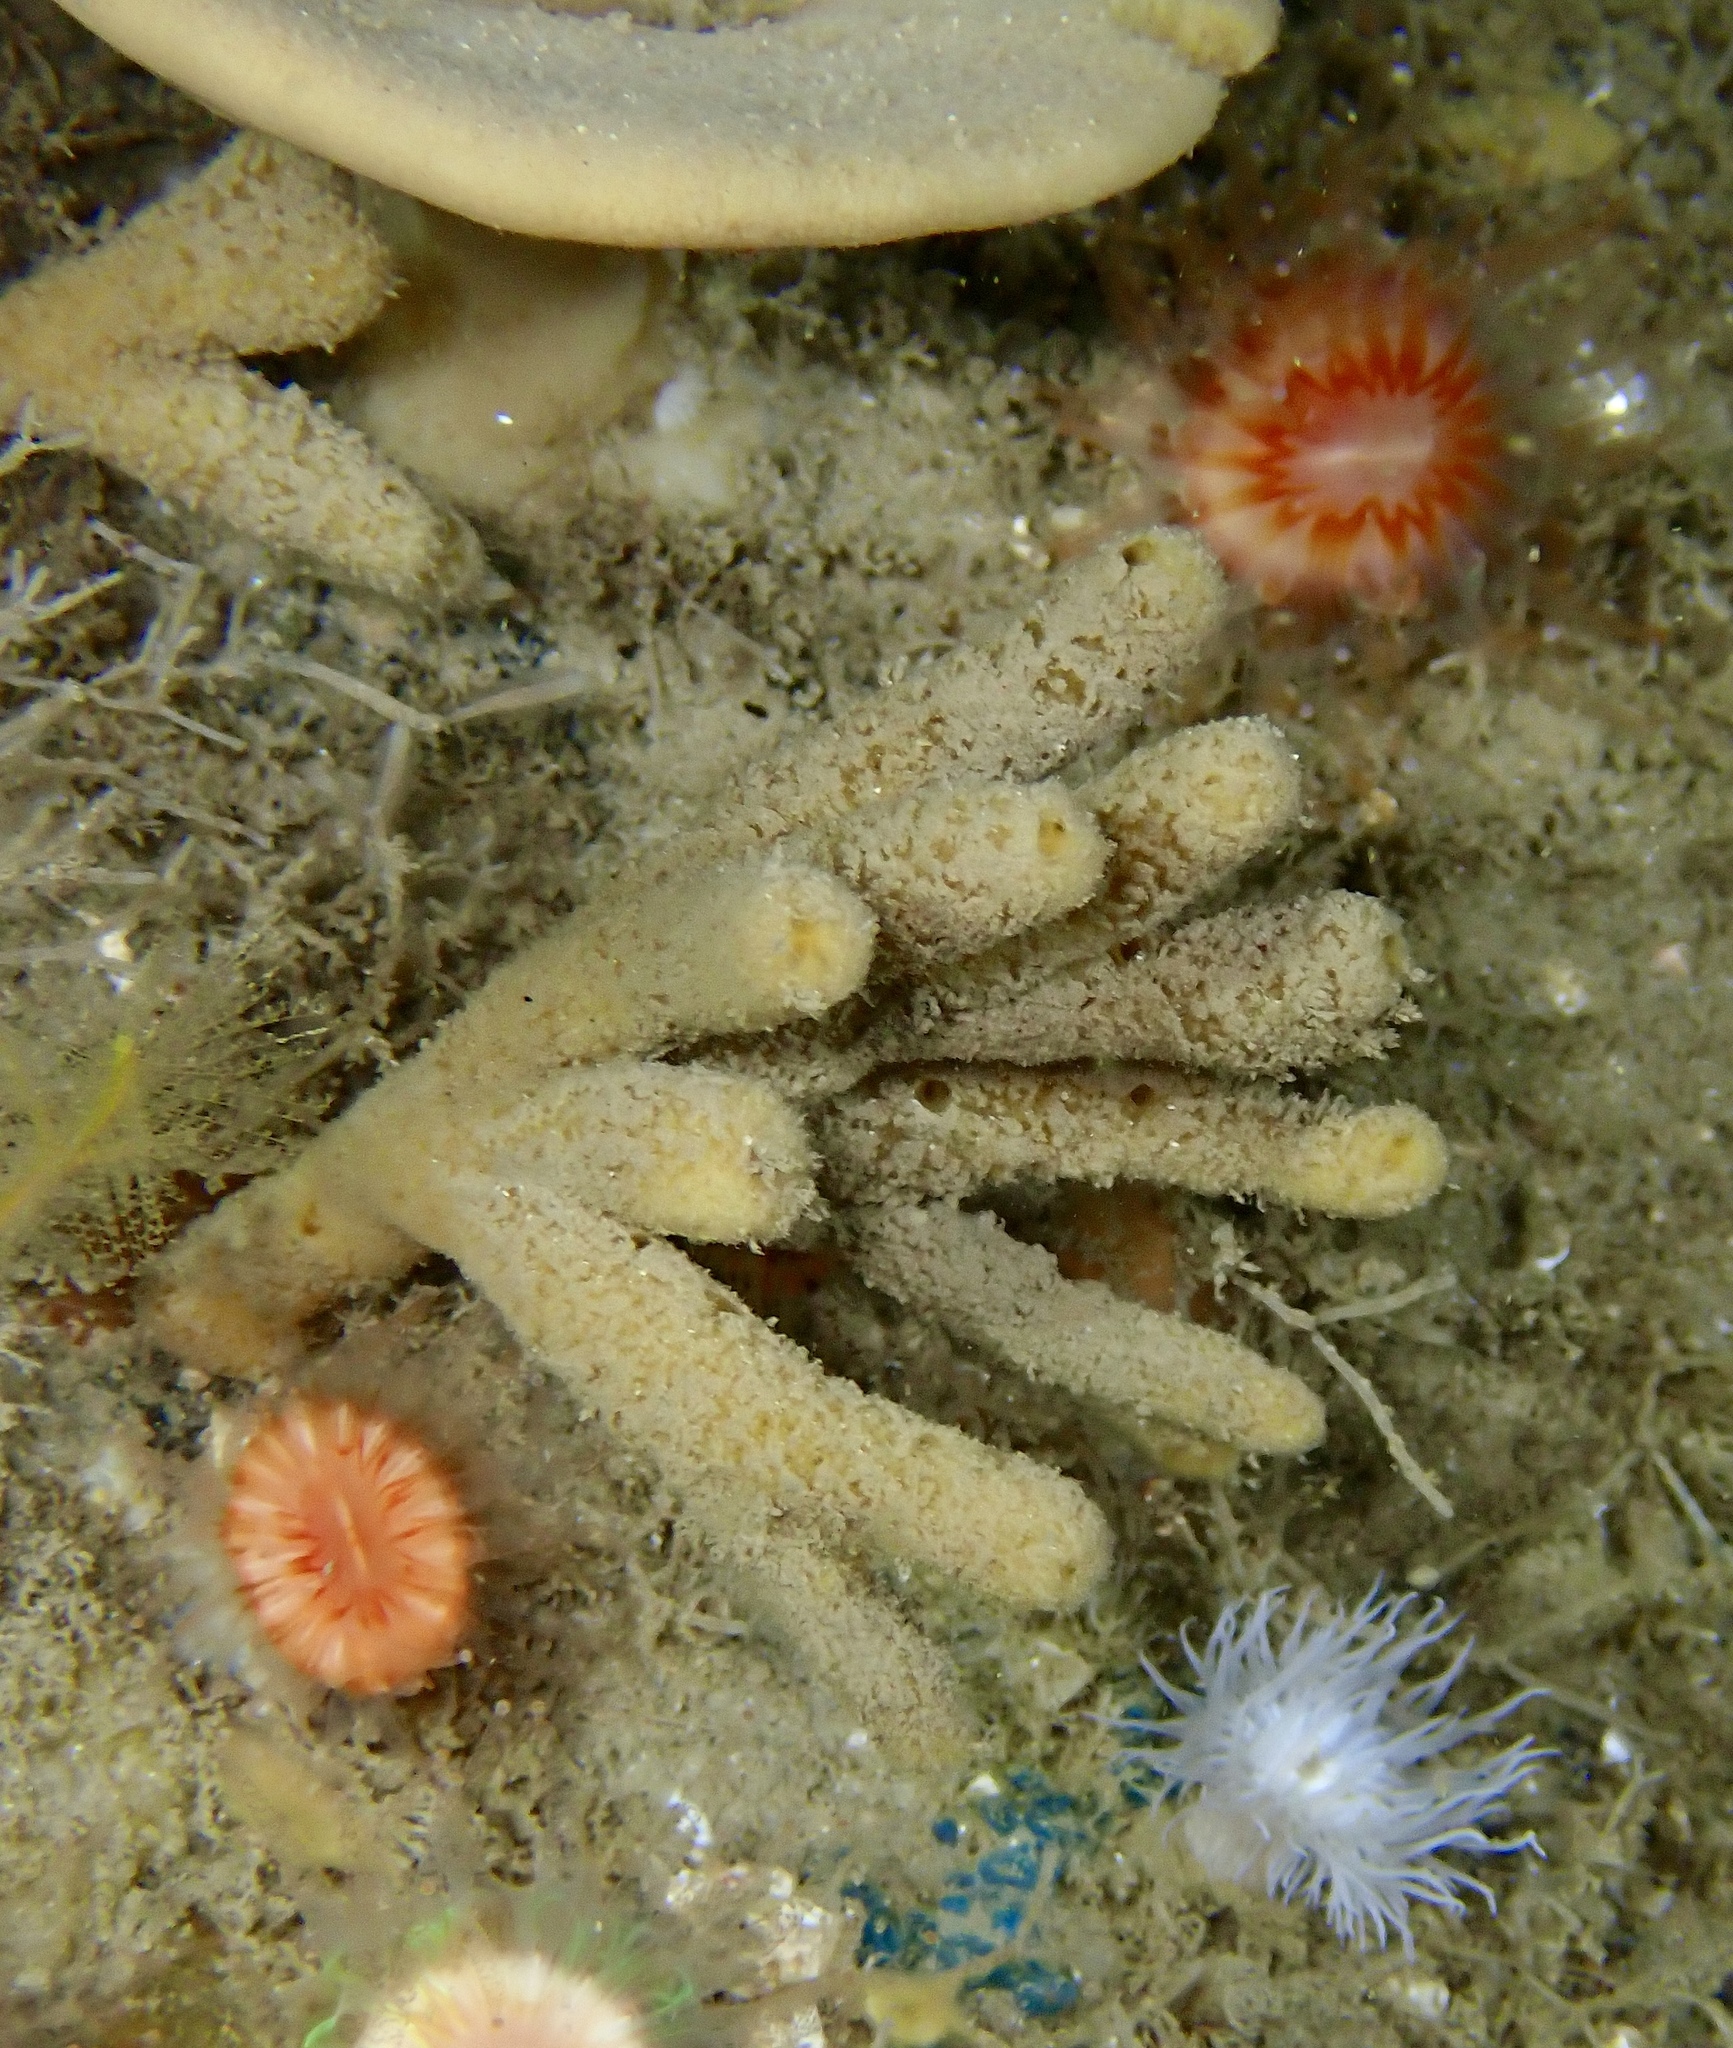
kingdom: Animalia
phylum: Porifera
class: Demospongiae
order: Axinellida
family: Stelligeridae
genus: Stelligera
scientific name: Stelligera stuposa
